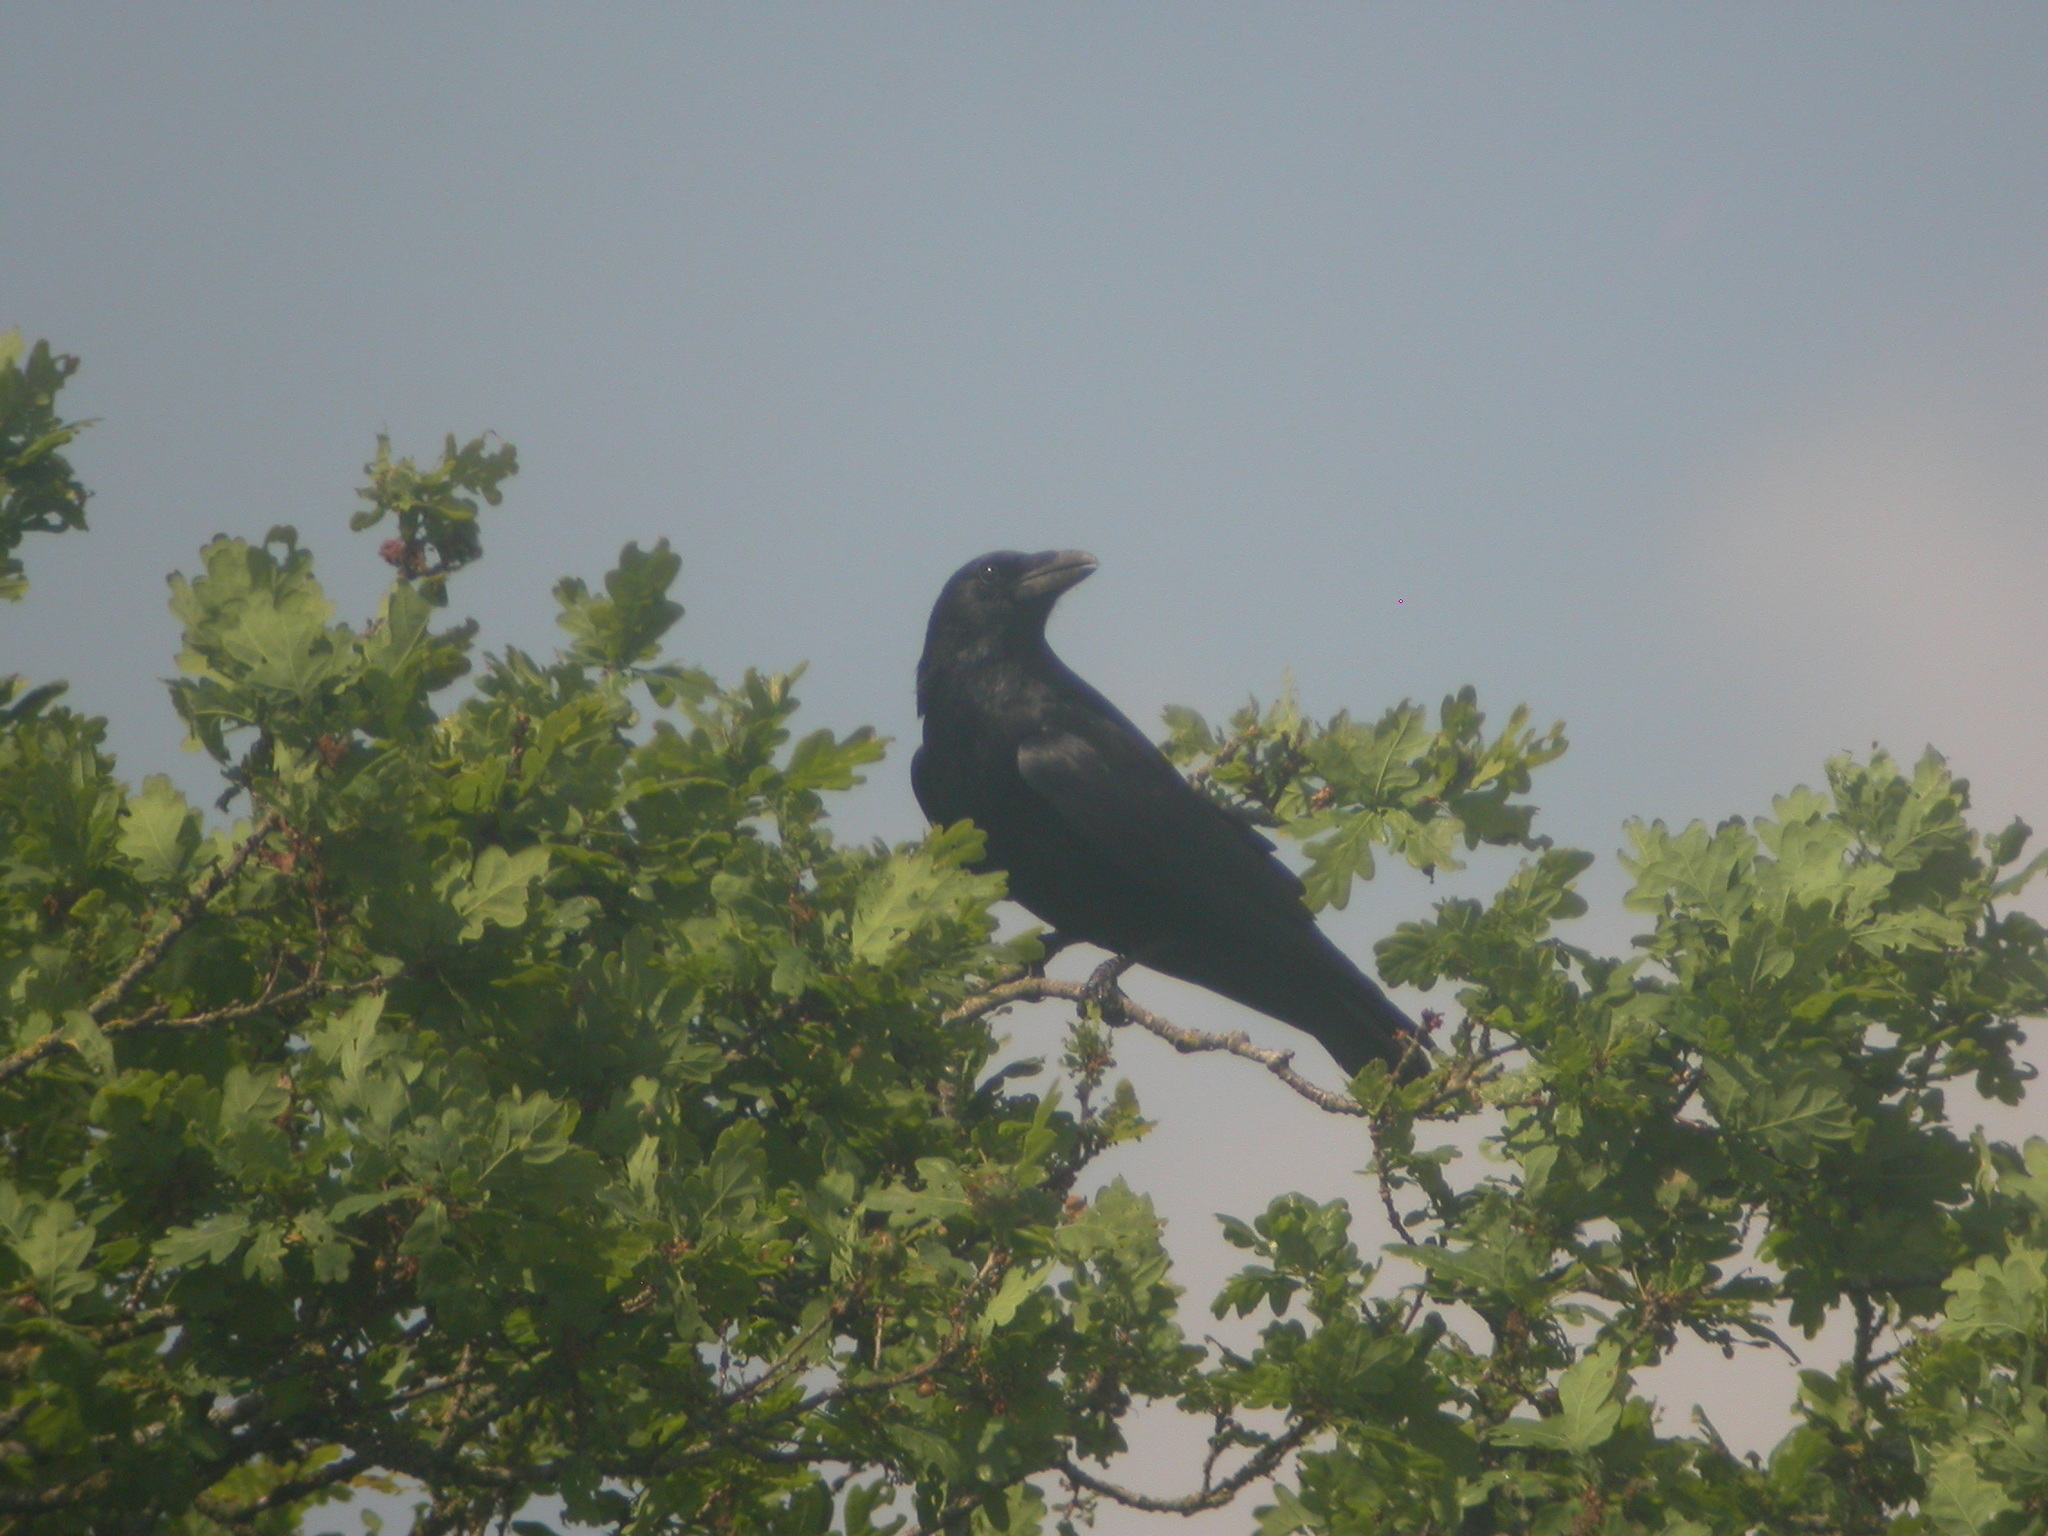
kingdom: Animalia
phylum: Chordata
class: Aves
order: Passeriformes
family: Corvidae
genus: Corvus
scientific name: Corvus corone
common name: Carrion crow
